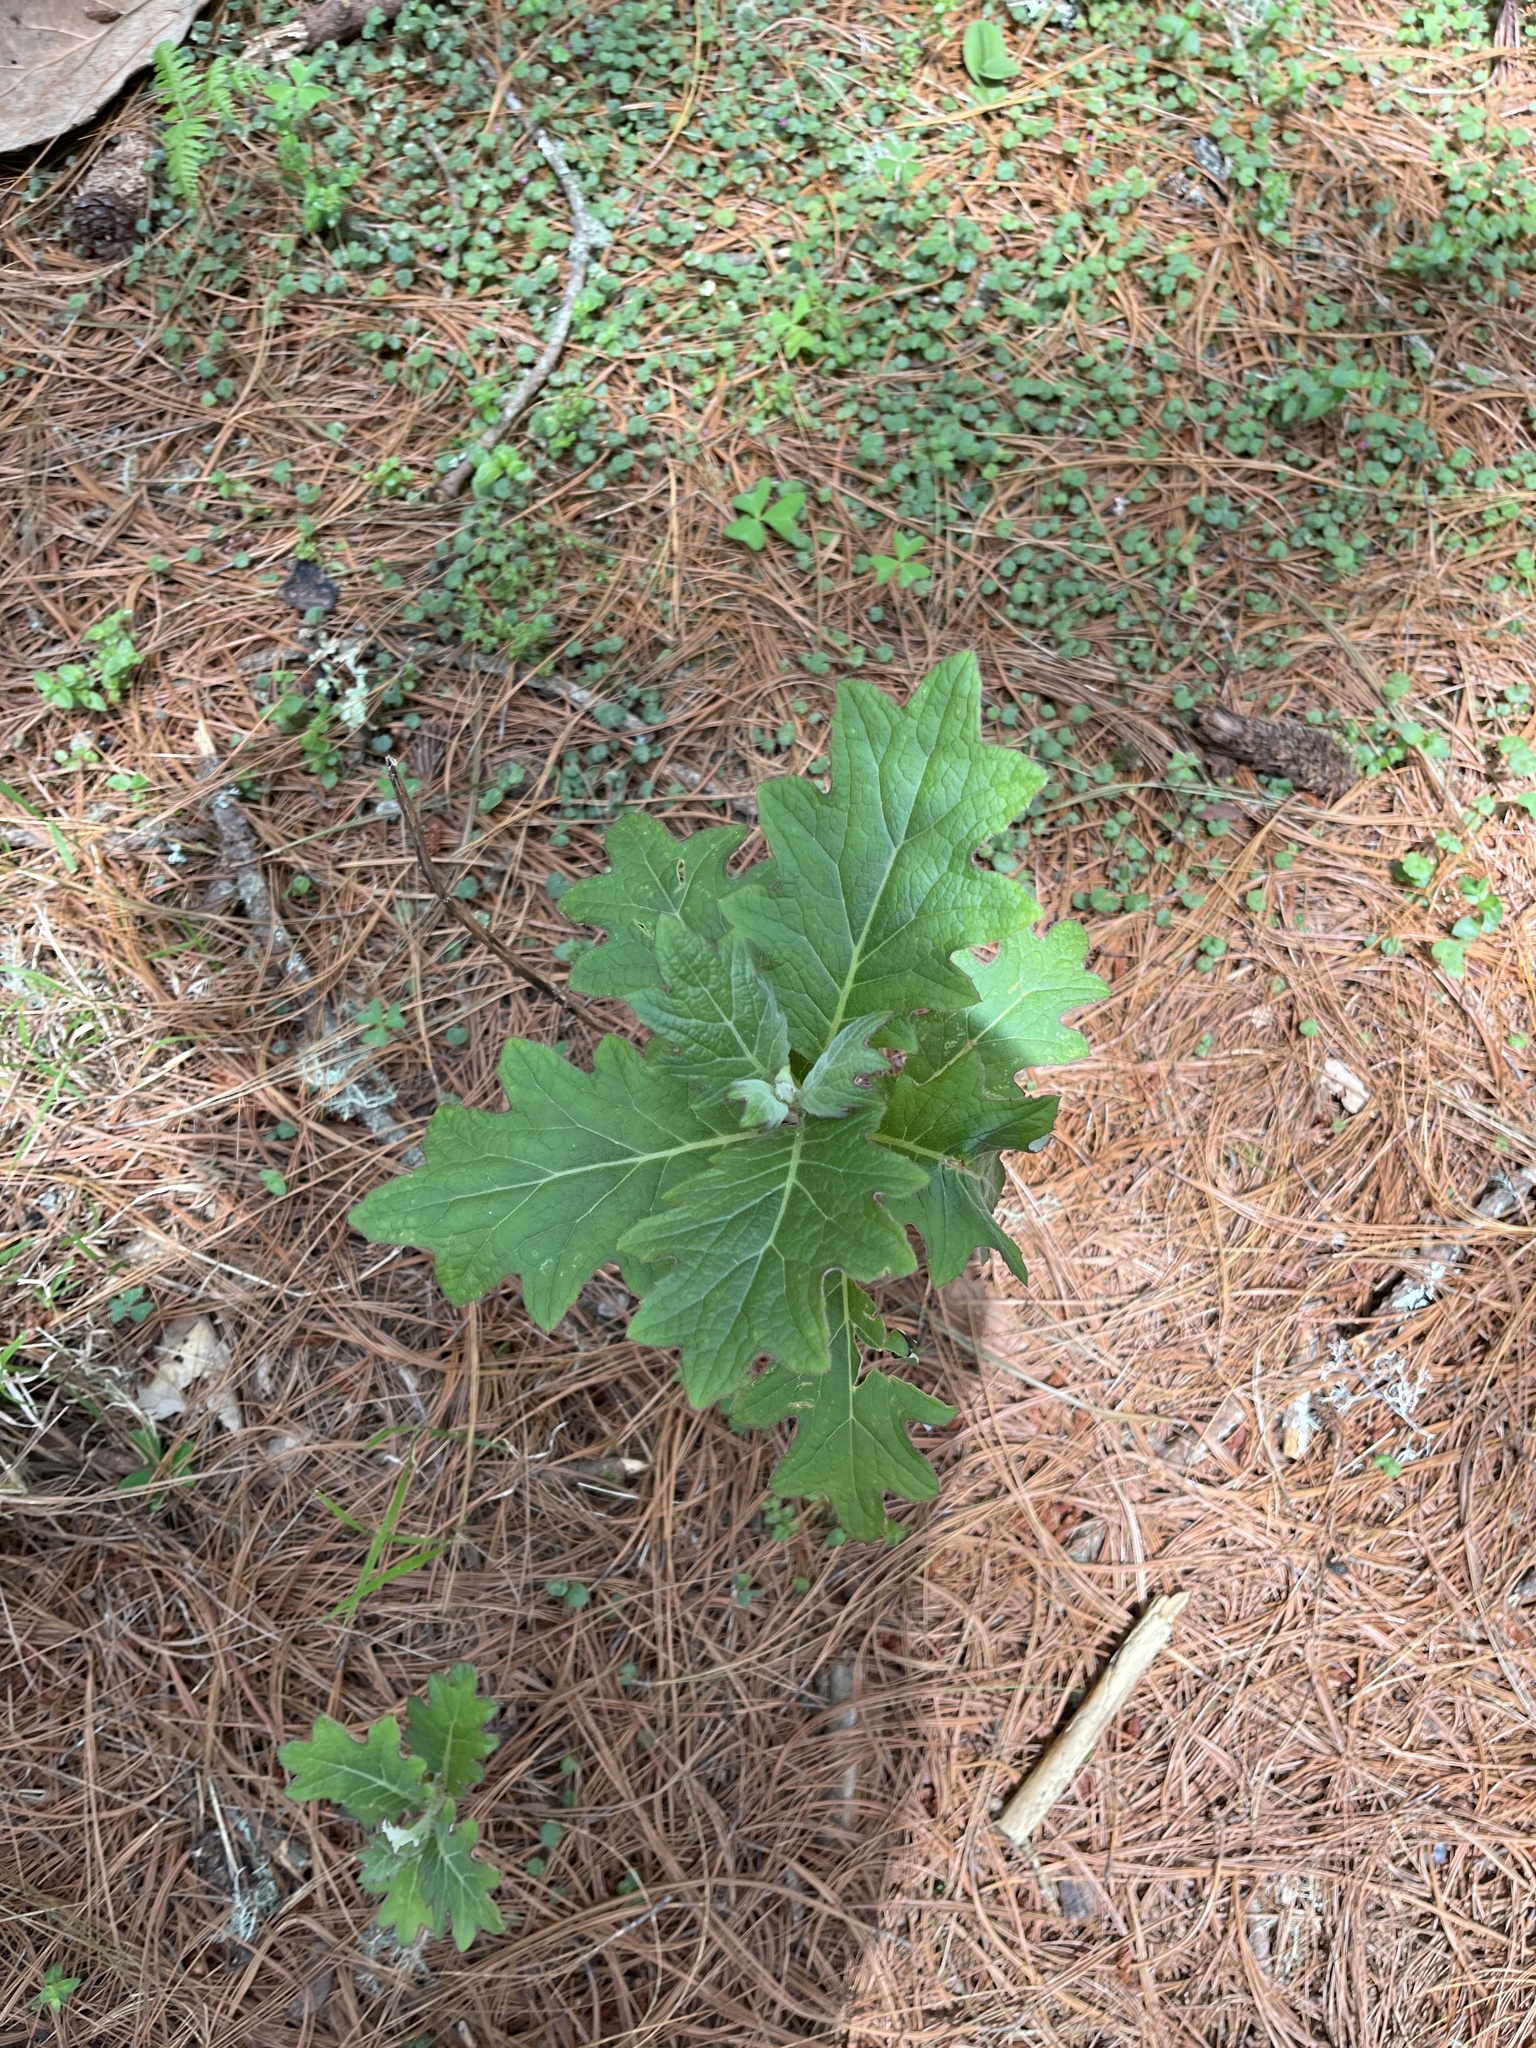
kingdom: Plantae
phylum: Tracheophyta
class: Magnoliopsida
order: Asterales
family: Asteraceae
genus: Roldana
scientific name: Roldana candicans
